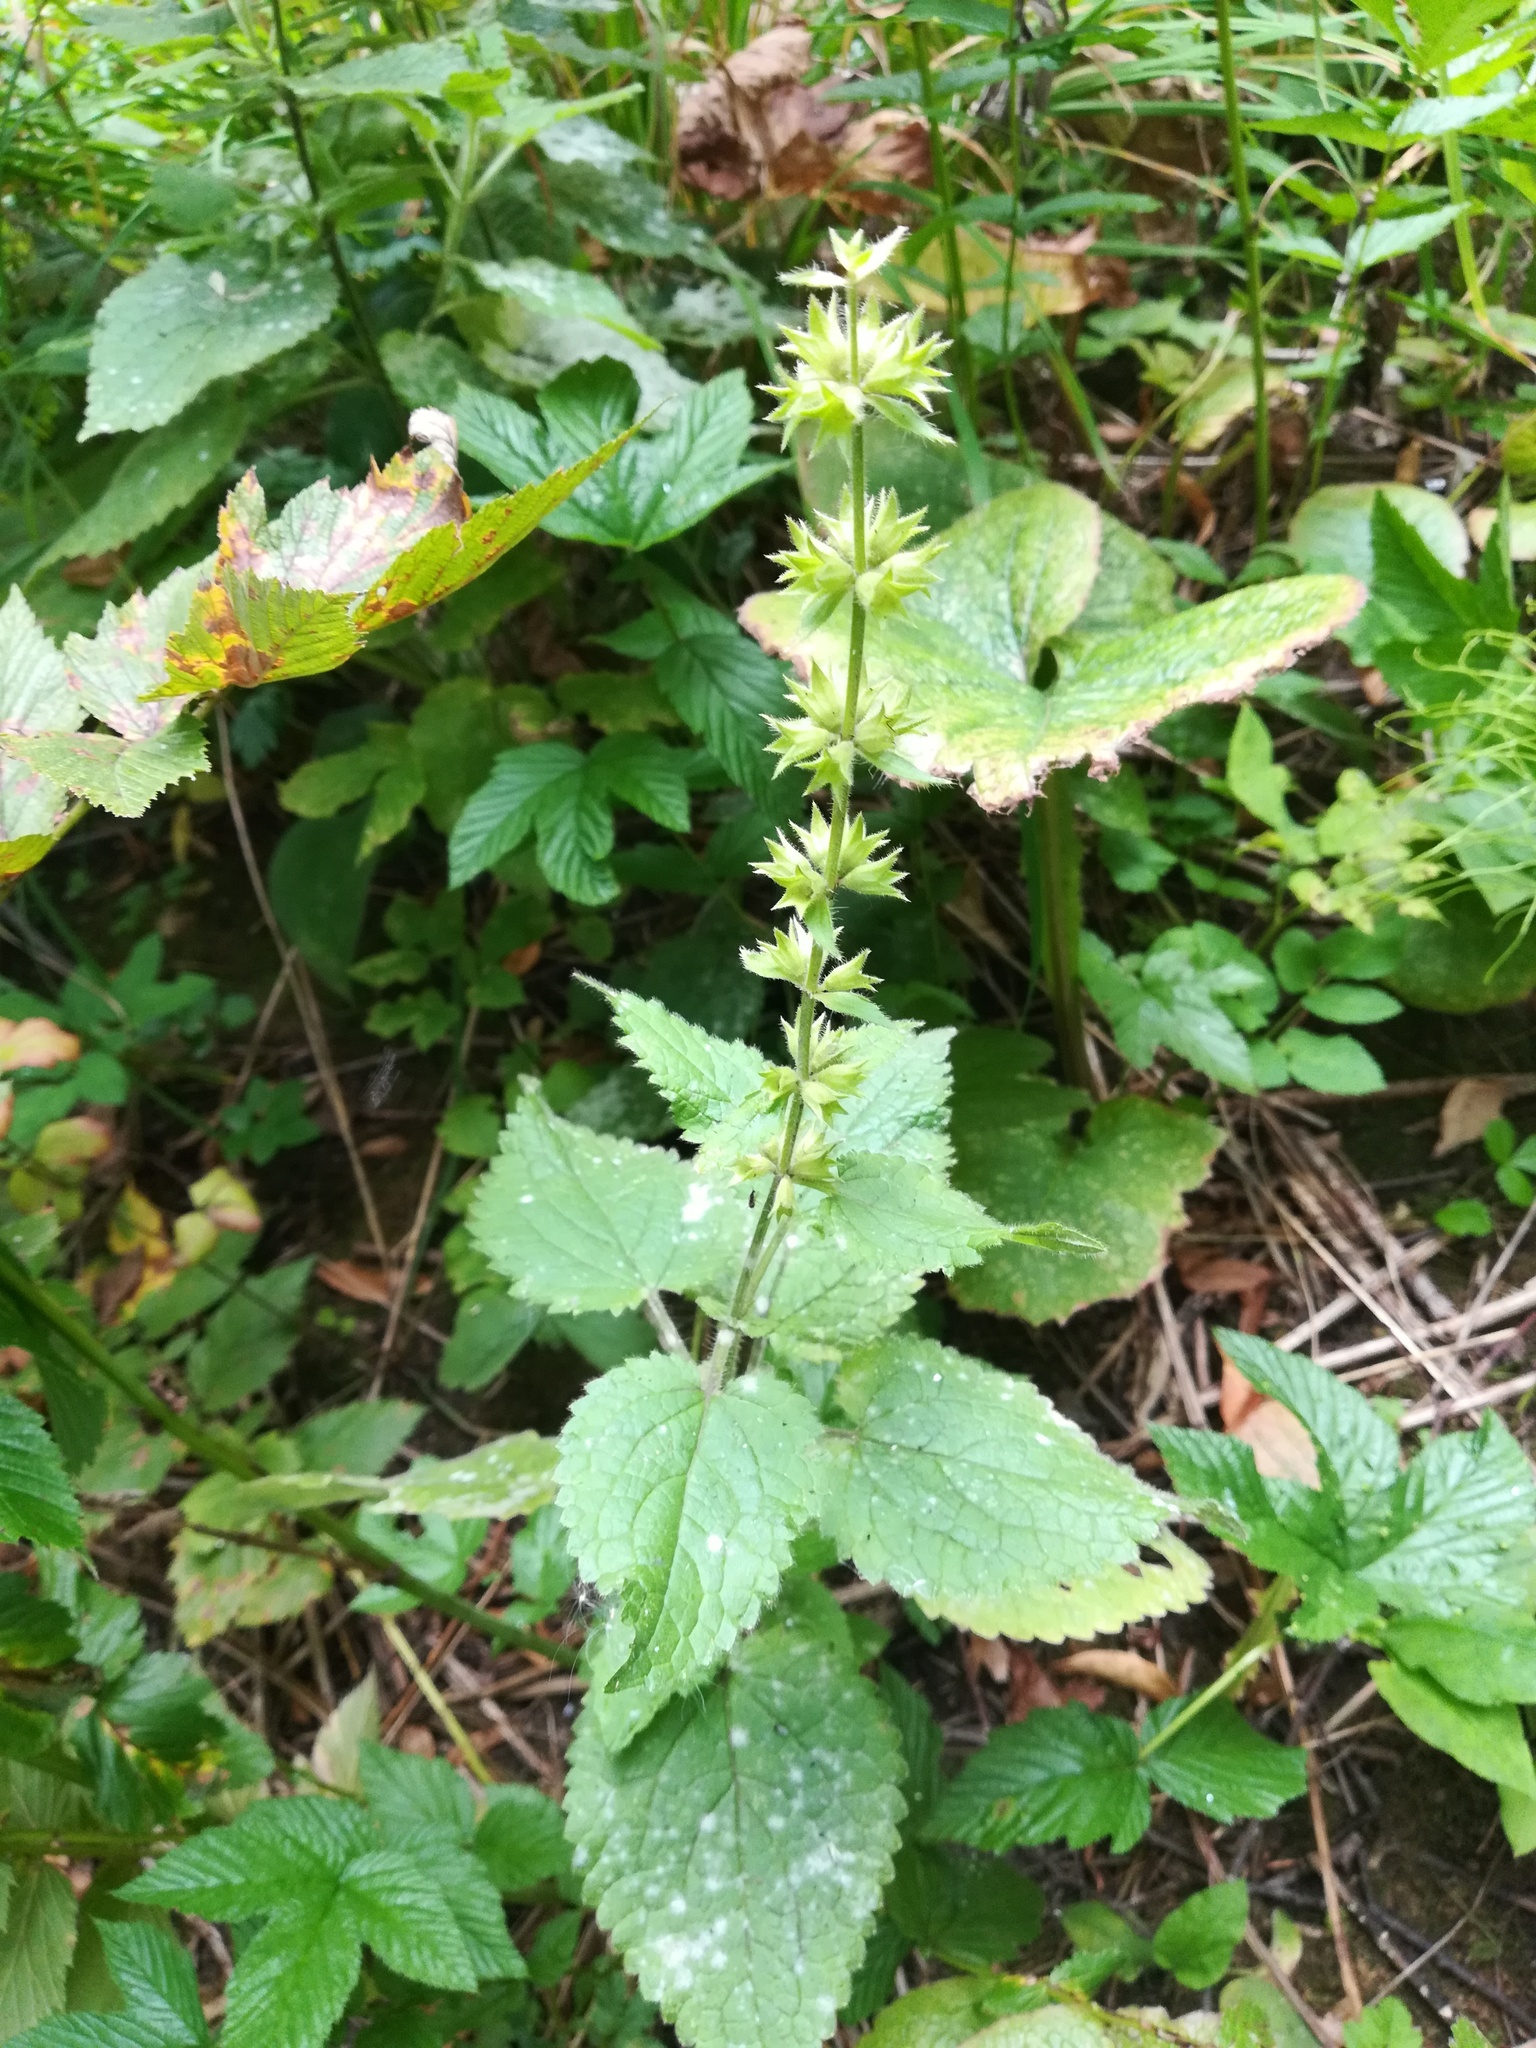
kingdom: Plantae
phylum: Tracheophyta
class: Magnoliopsida
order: Lamiales
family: Lamiaceae
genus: Stachys
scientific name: Stachys sylvatica
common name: Hedge woundwort
